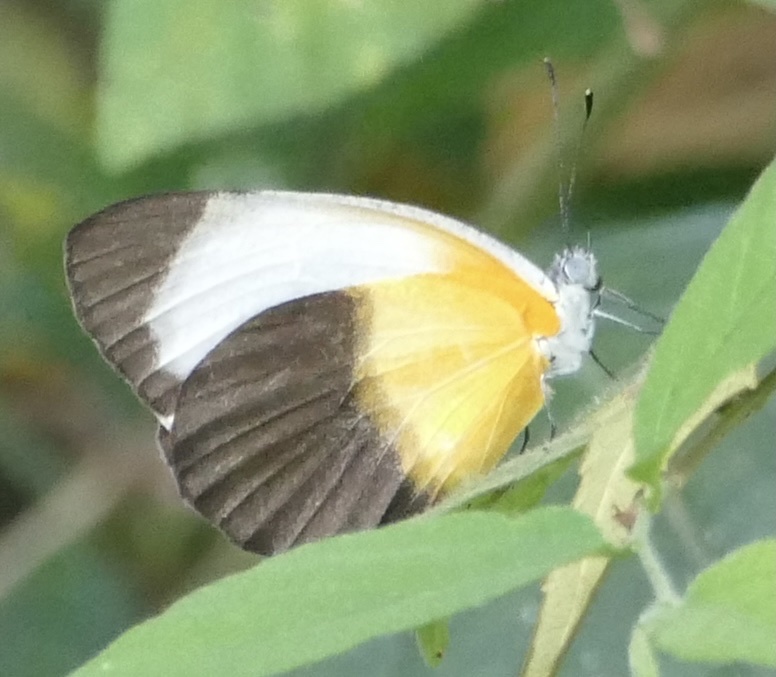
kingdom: Animalia
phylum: Arthropoda
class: Insecta
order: Lepidoptera
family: Pieridae
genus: Mylothris
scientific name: Mylothris chloris
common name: Western dotted border
